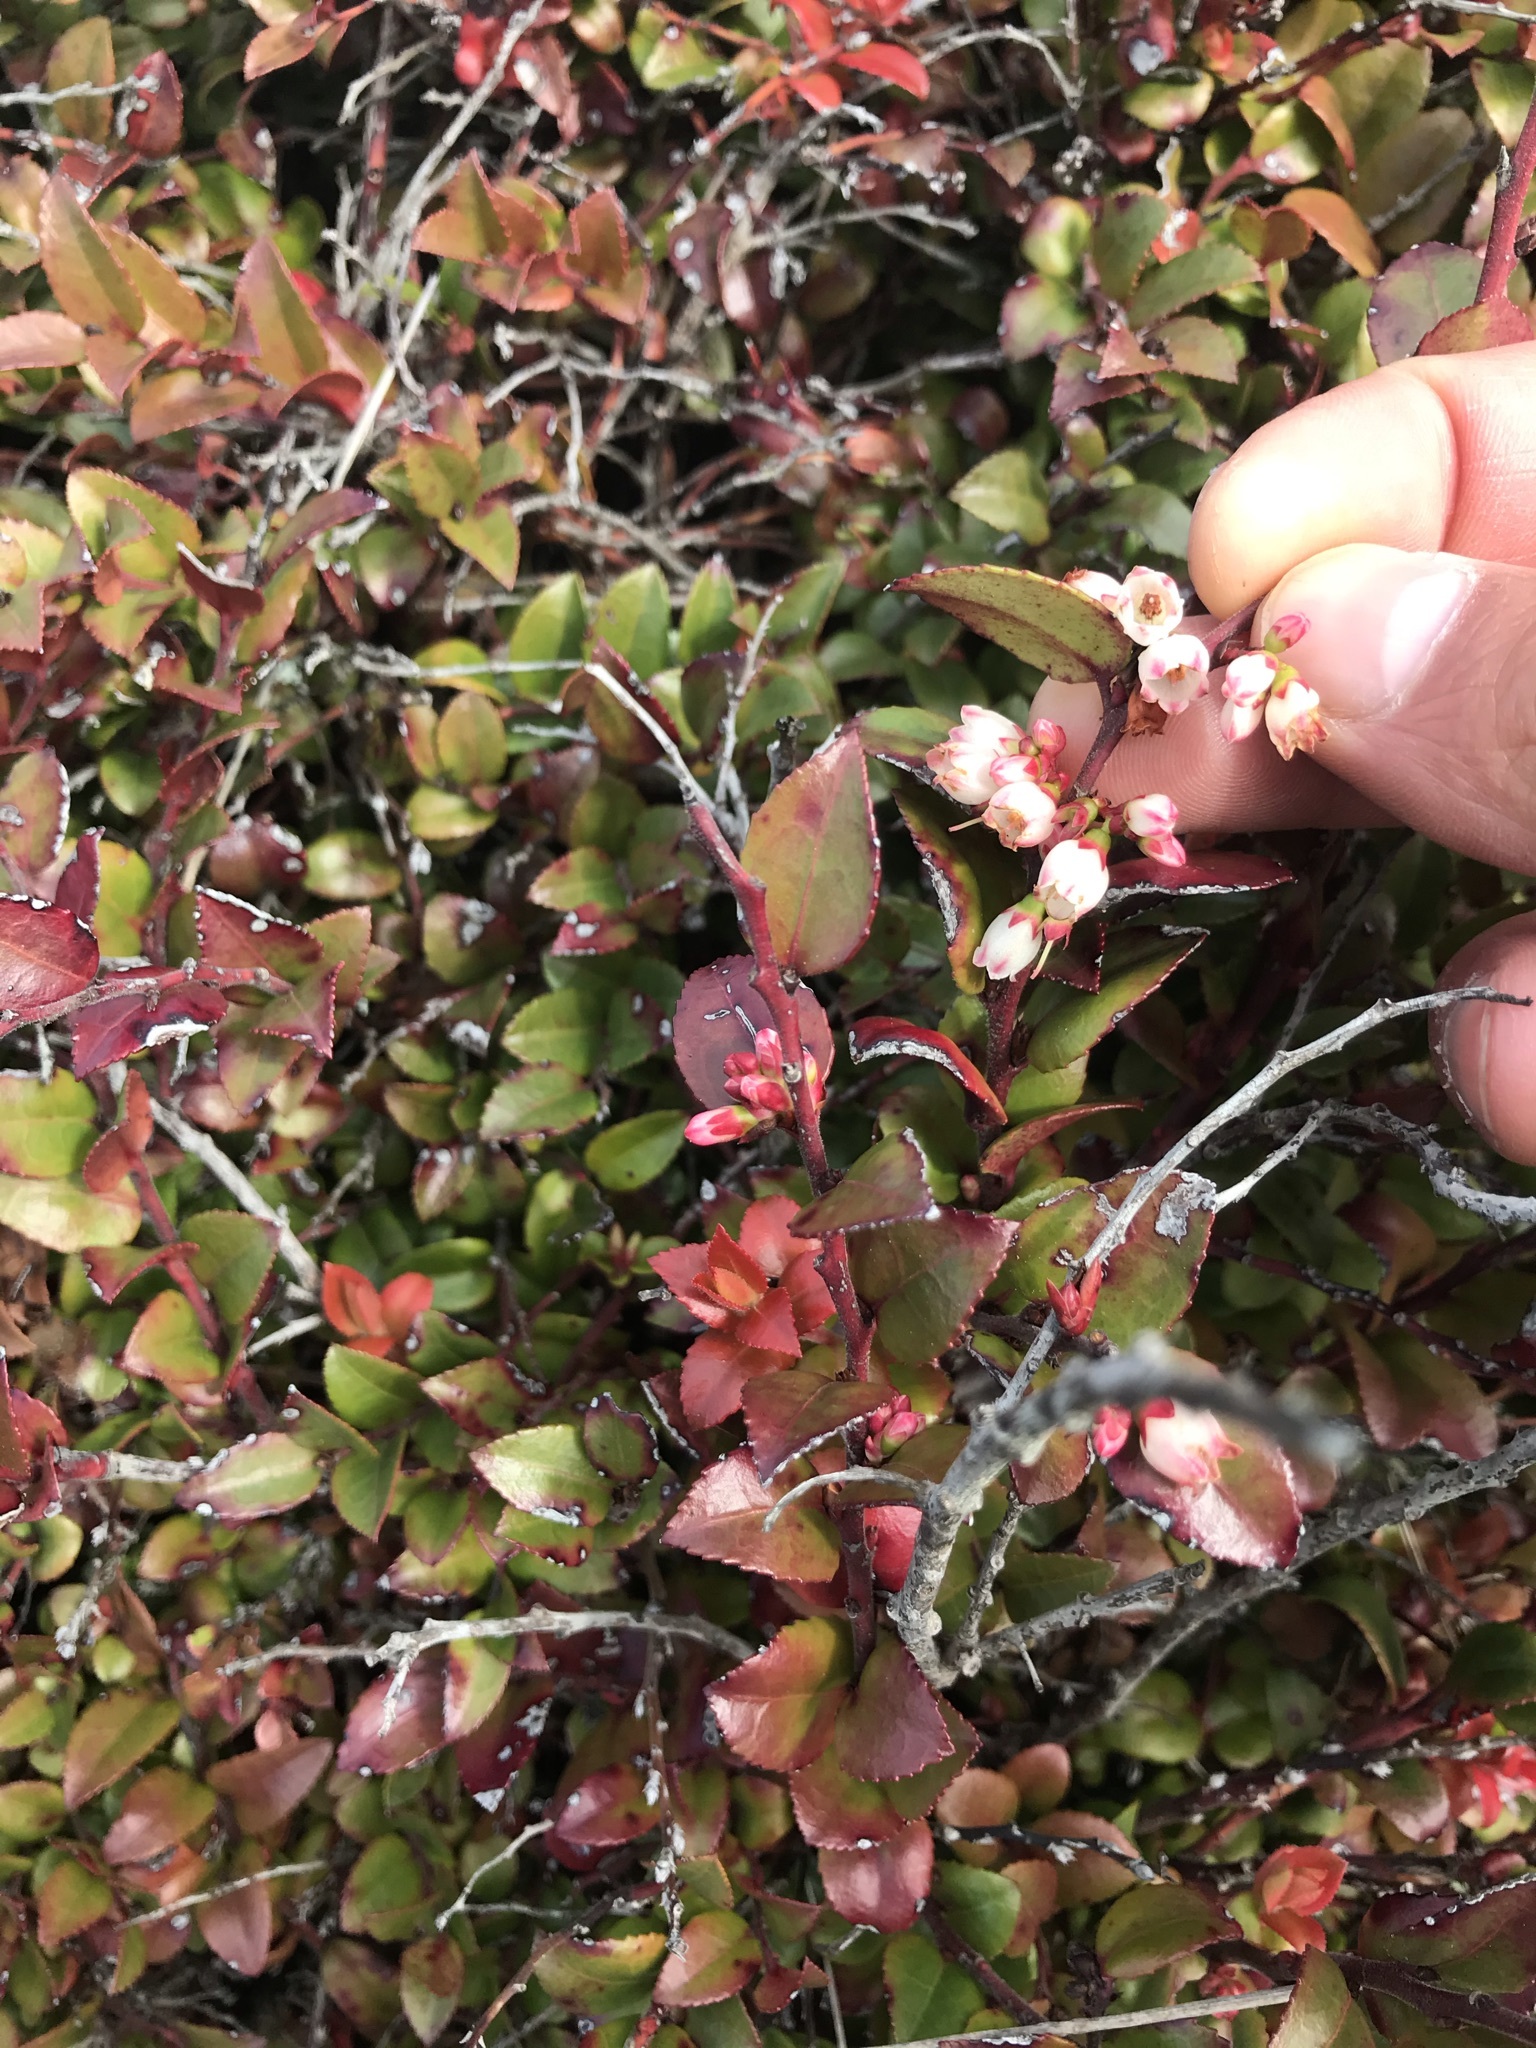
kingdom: Plantae
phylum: Tracheophyta
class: Magnoliopsida
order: Ericales
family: Ericaceae
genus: Vaccinium
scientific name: Vaccinium ovatum
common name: California-huckleberry
